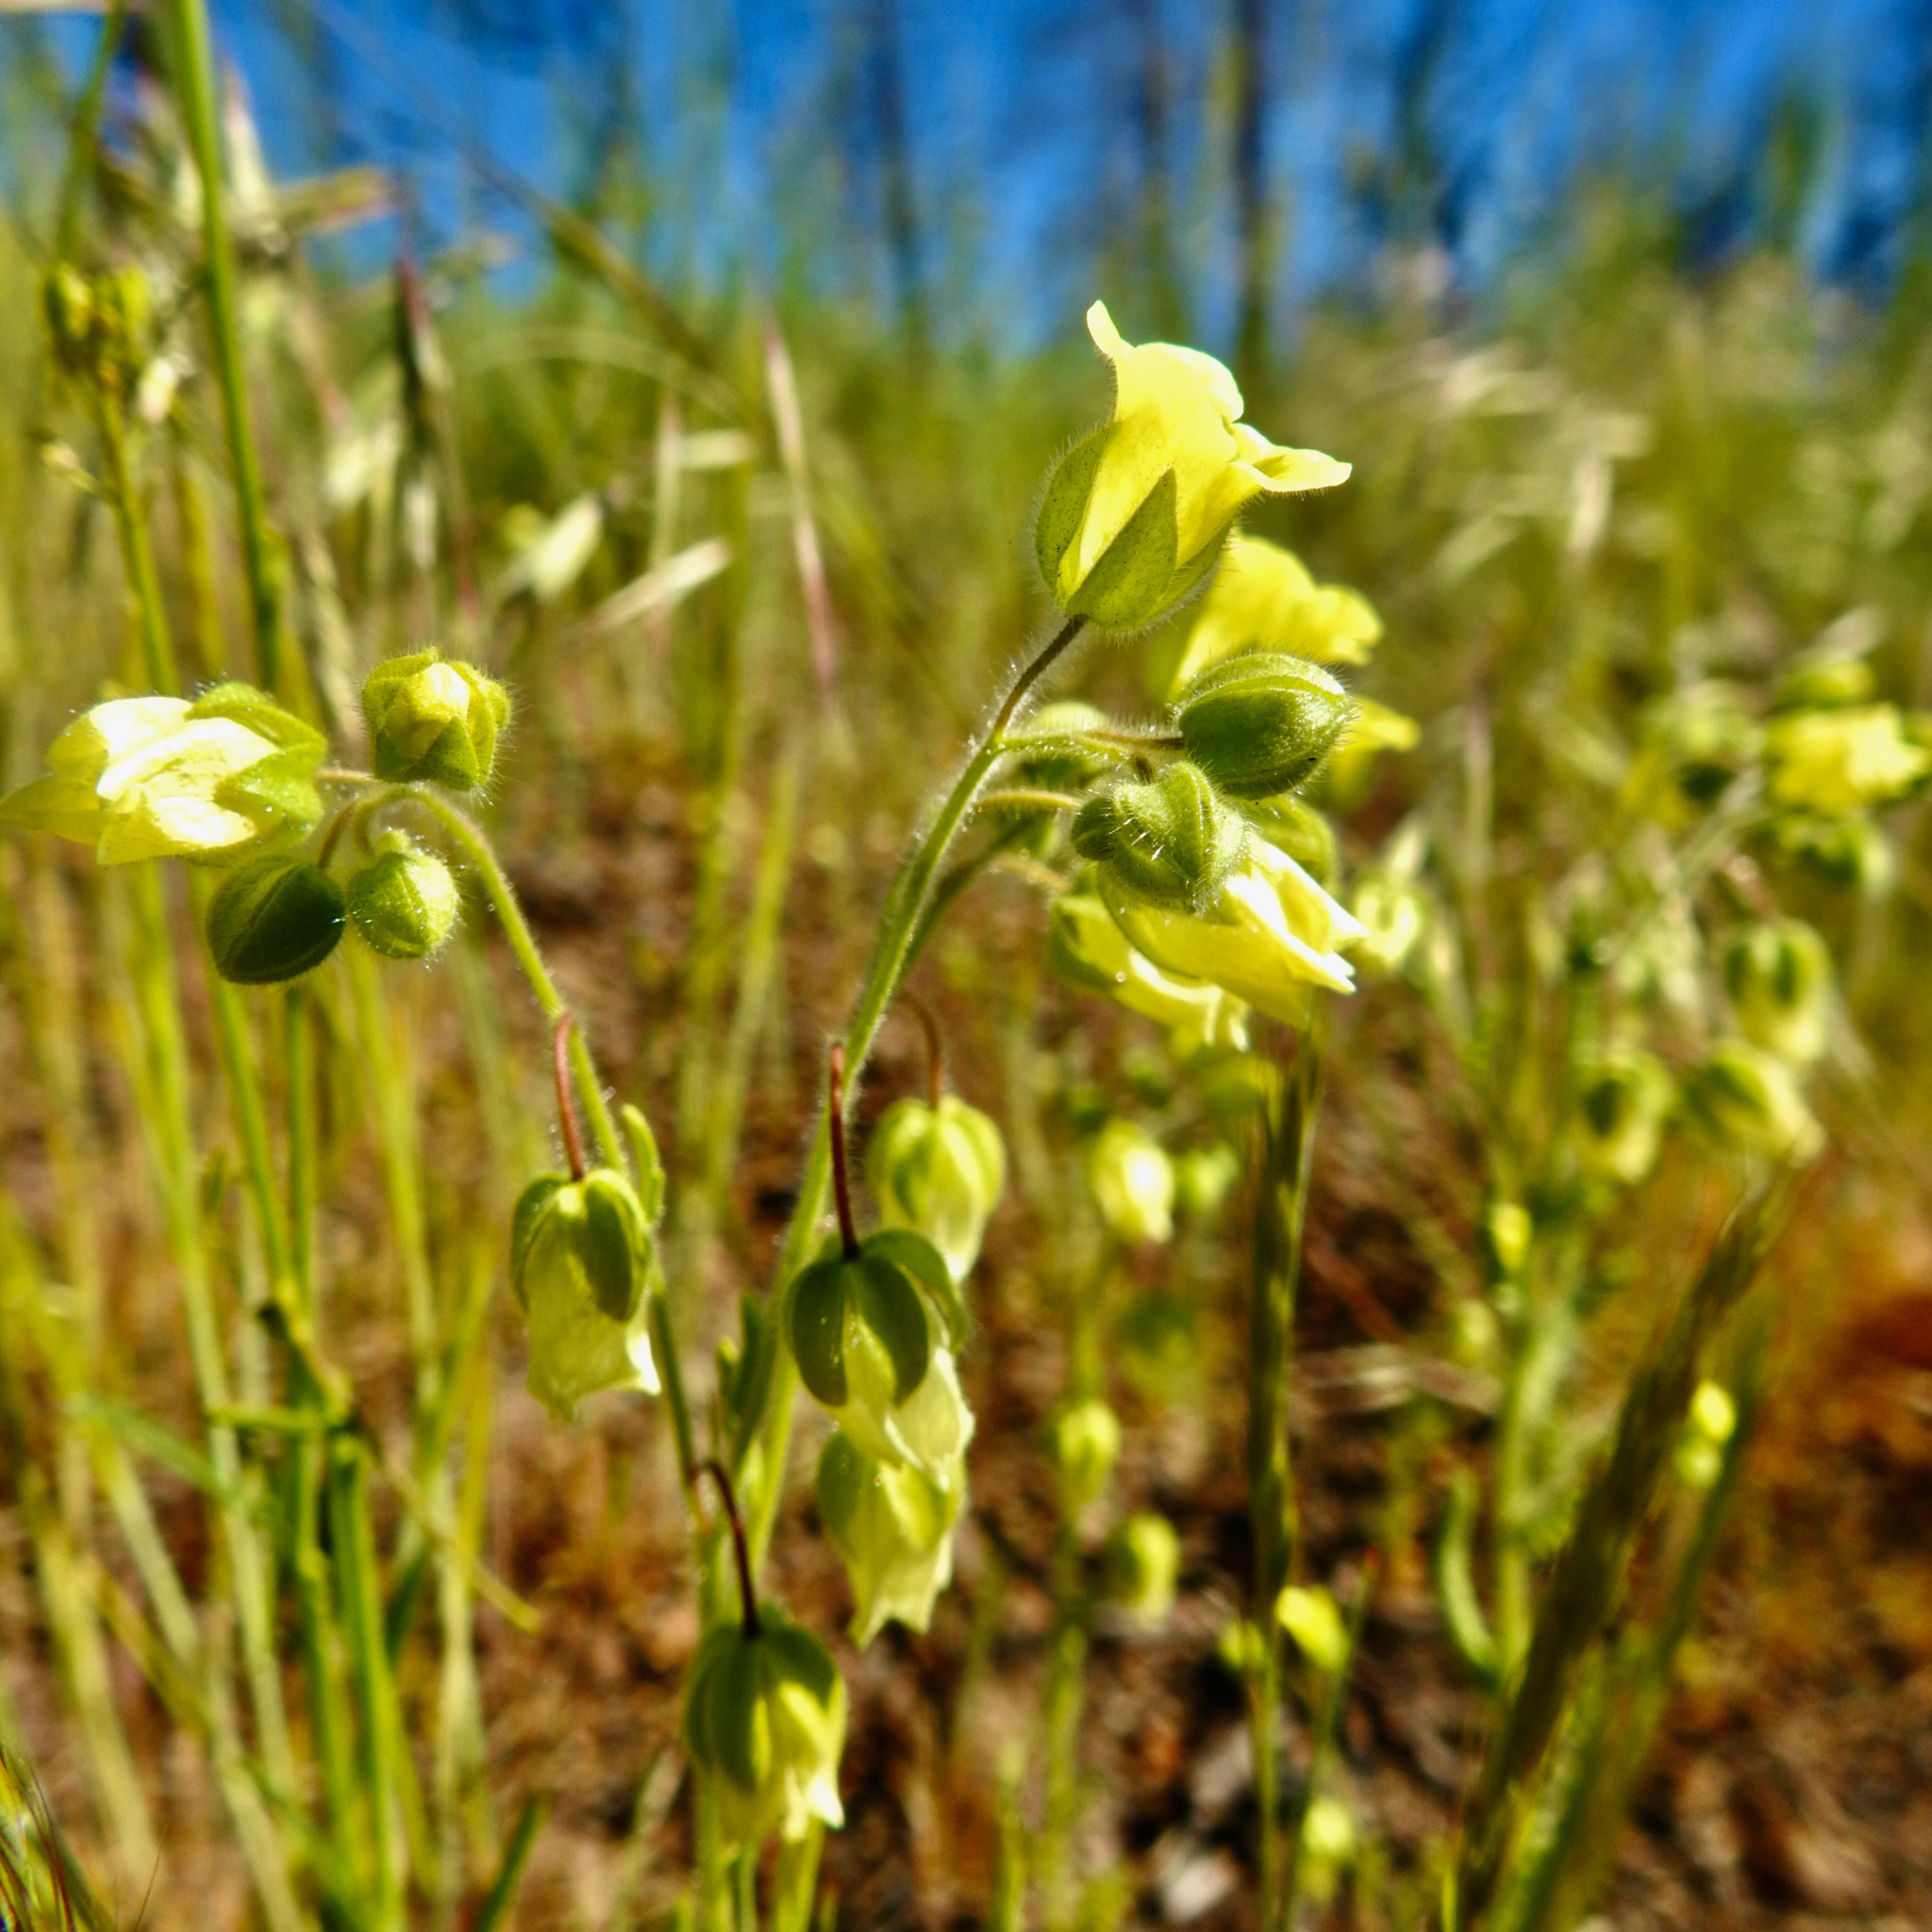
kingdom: Plantae
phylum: Tracheophyta
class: Magnoliopsida
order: Boraginales
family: Hydrophyllaceae
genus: Emmenanthe
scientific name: Emmenanthe penduliflora
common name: Whispering-bells
